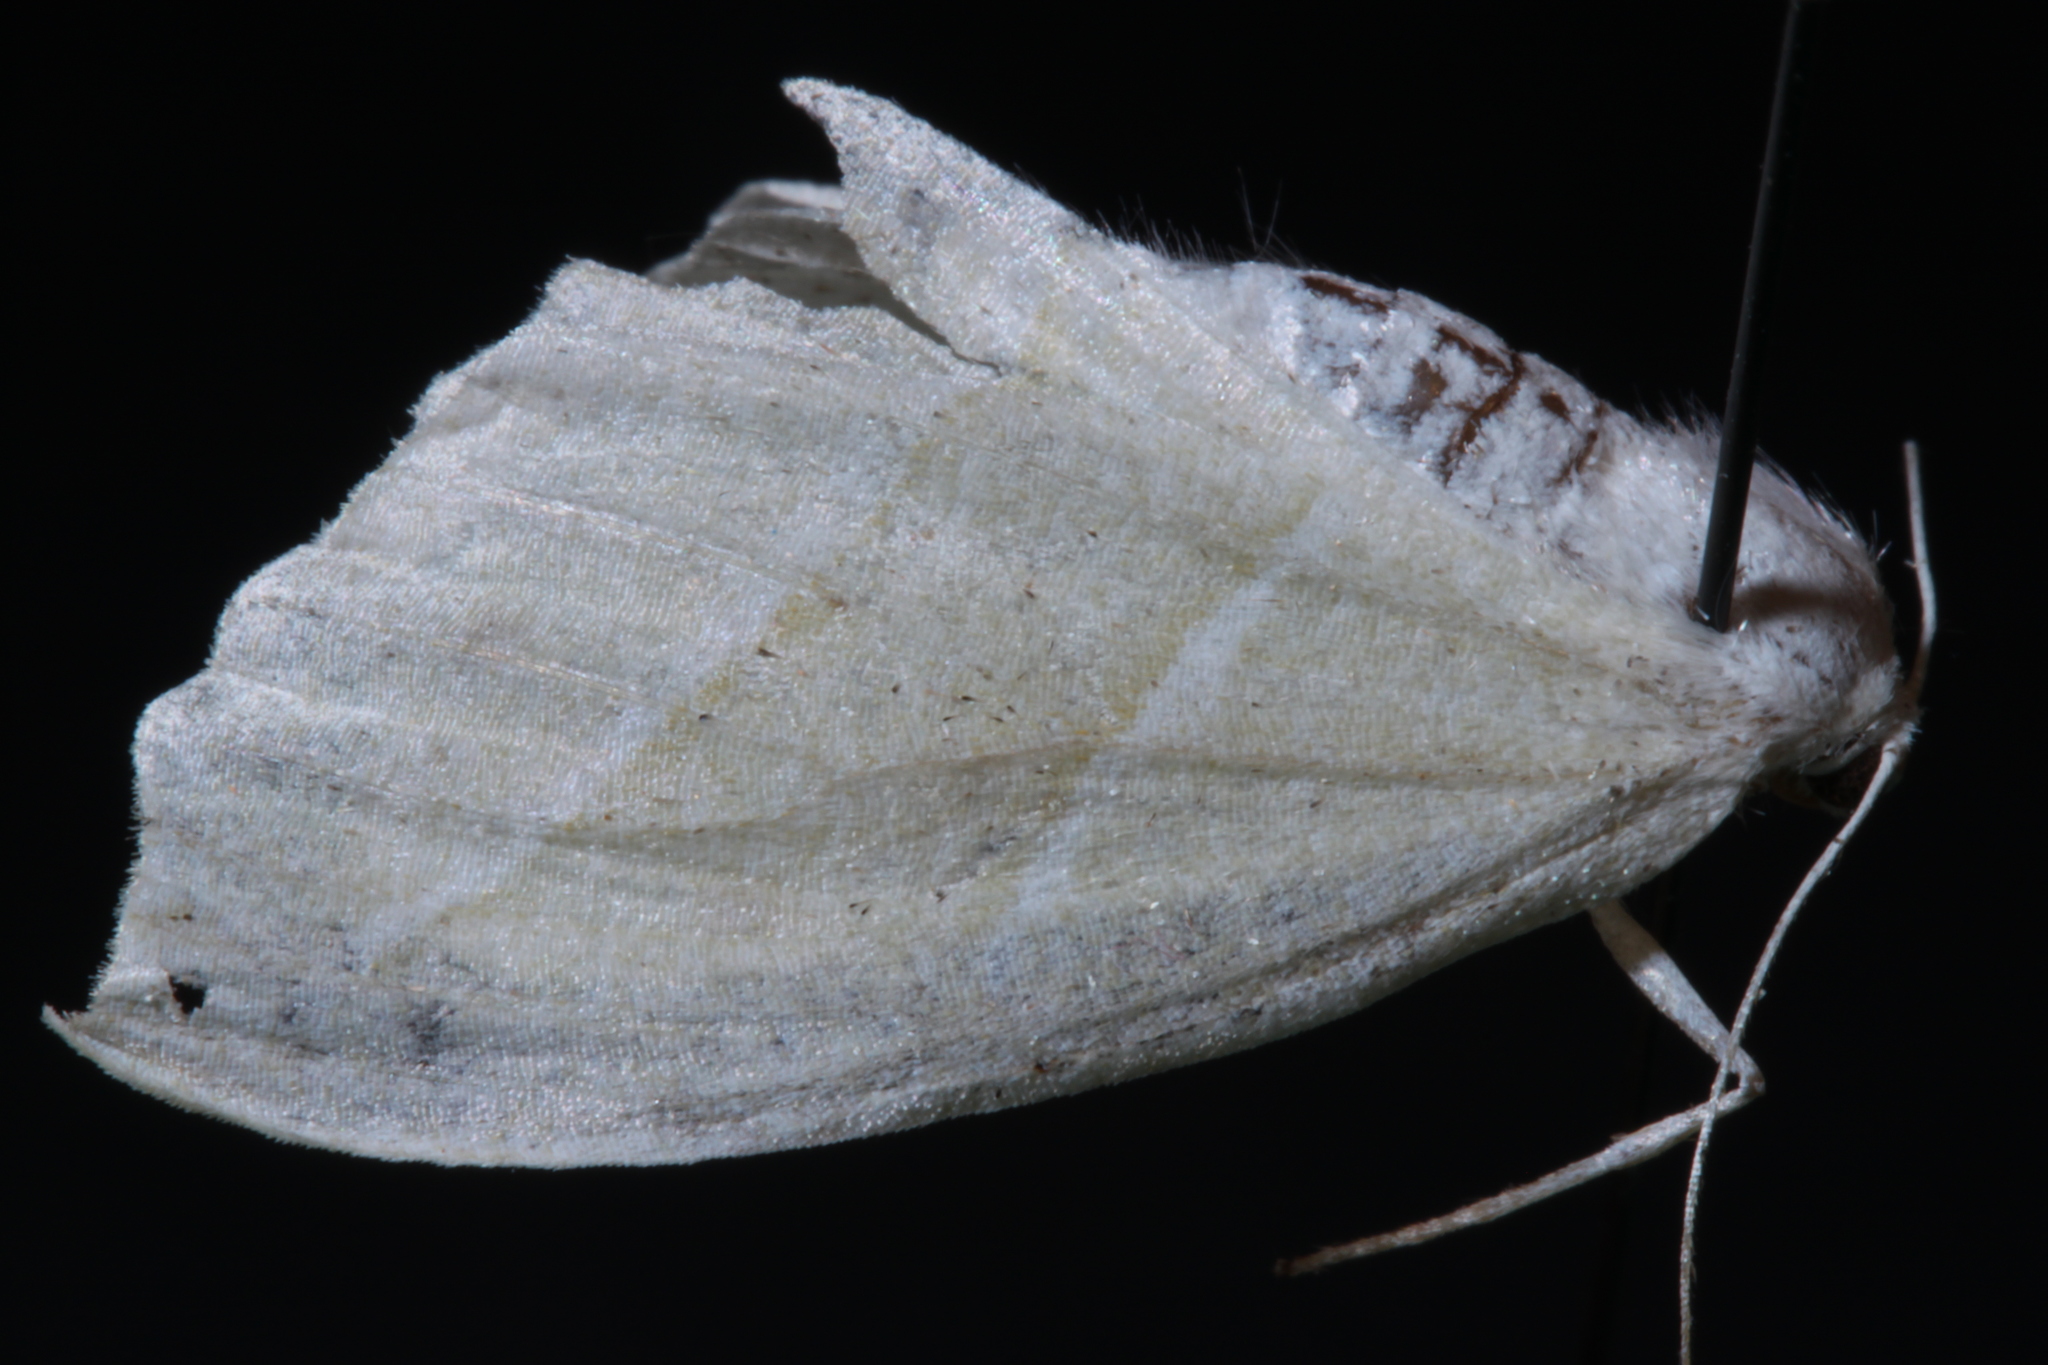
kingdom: Animalia
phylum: Arthropoda
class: Insecta
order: Lepidoptera
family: Geometridae
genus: Campaea
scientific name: Campaea perlata
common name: Fringed looper
